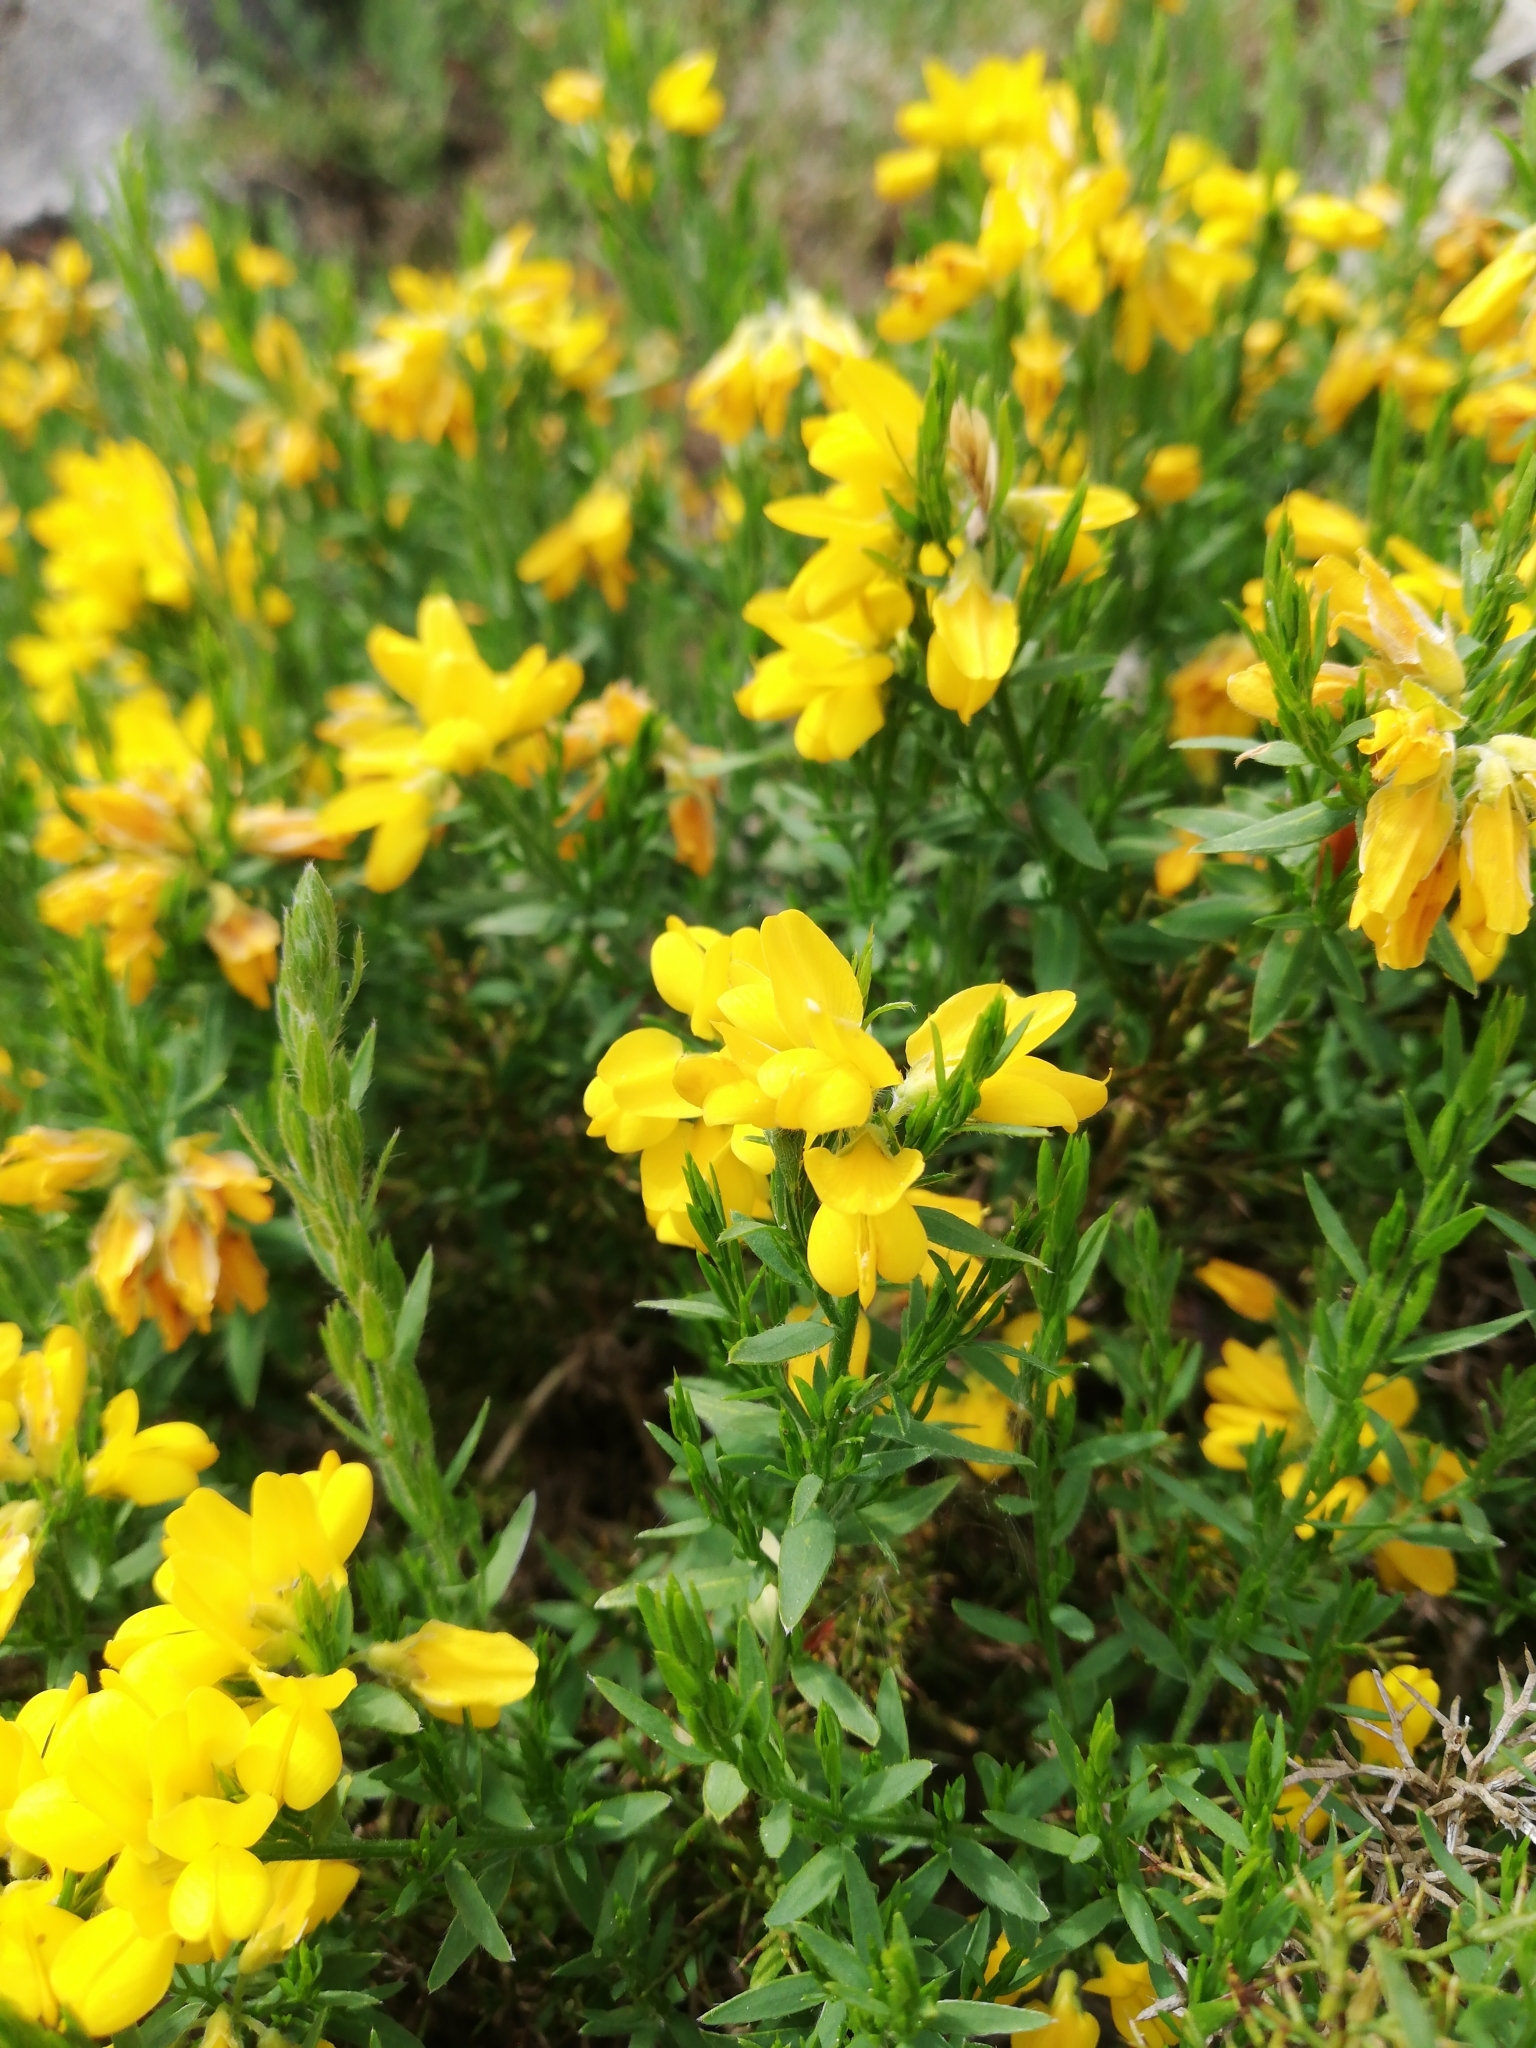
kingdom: Plantae
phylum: Tracheophyta
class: Magnoliopsida
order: Fabales
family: Fabaceae
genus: Genista
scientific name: Genista hispanica
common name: Spanish gorse
